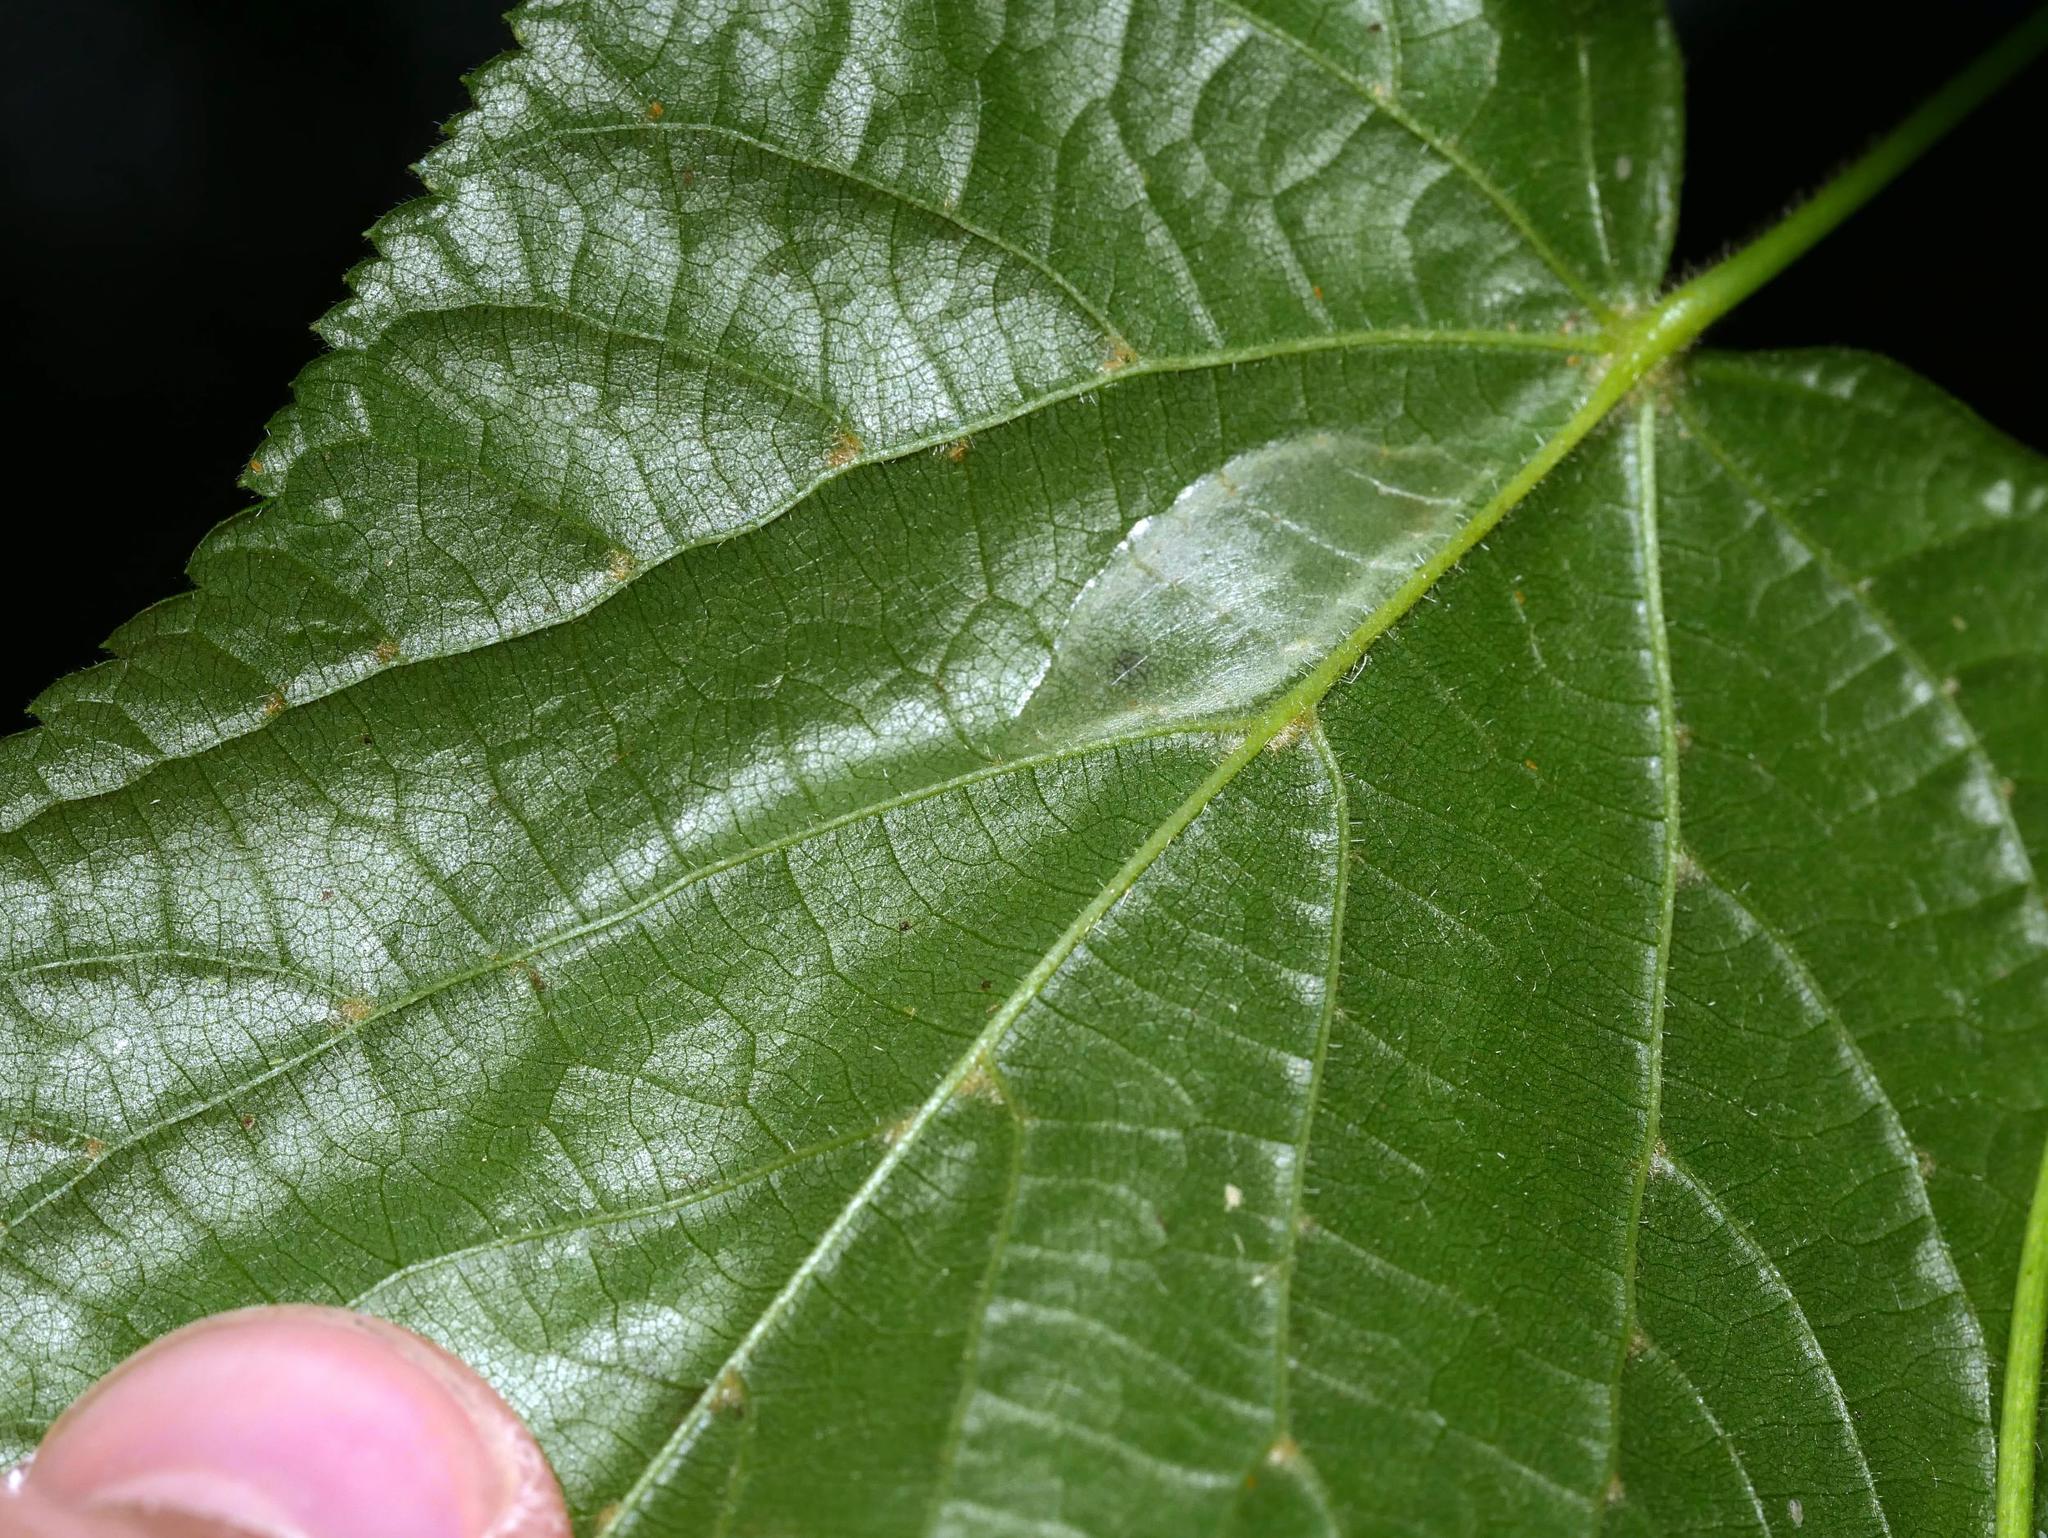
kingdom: Animalia
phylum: Arthropoda
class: Insecta
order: Lepidoptera
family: Gracillariidae
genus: Phyllonorycter
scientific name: Phyllonorycter issikii
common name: Linden midget
